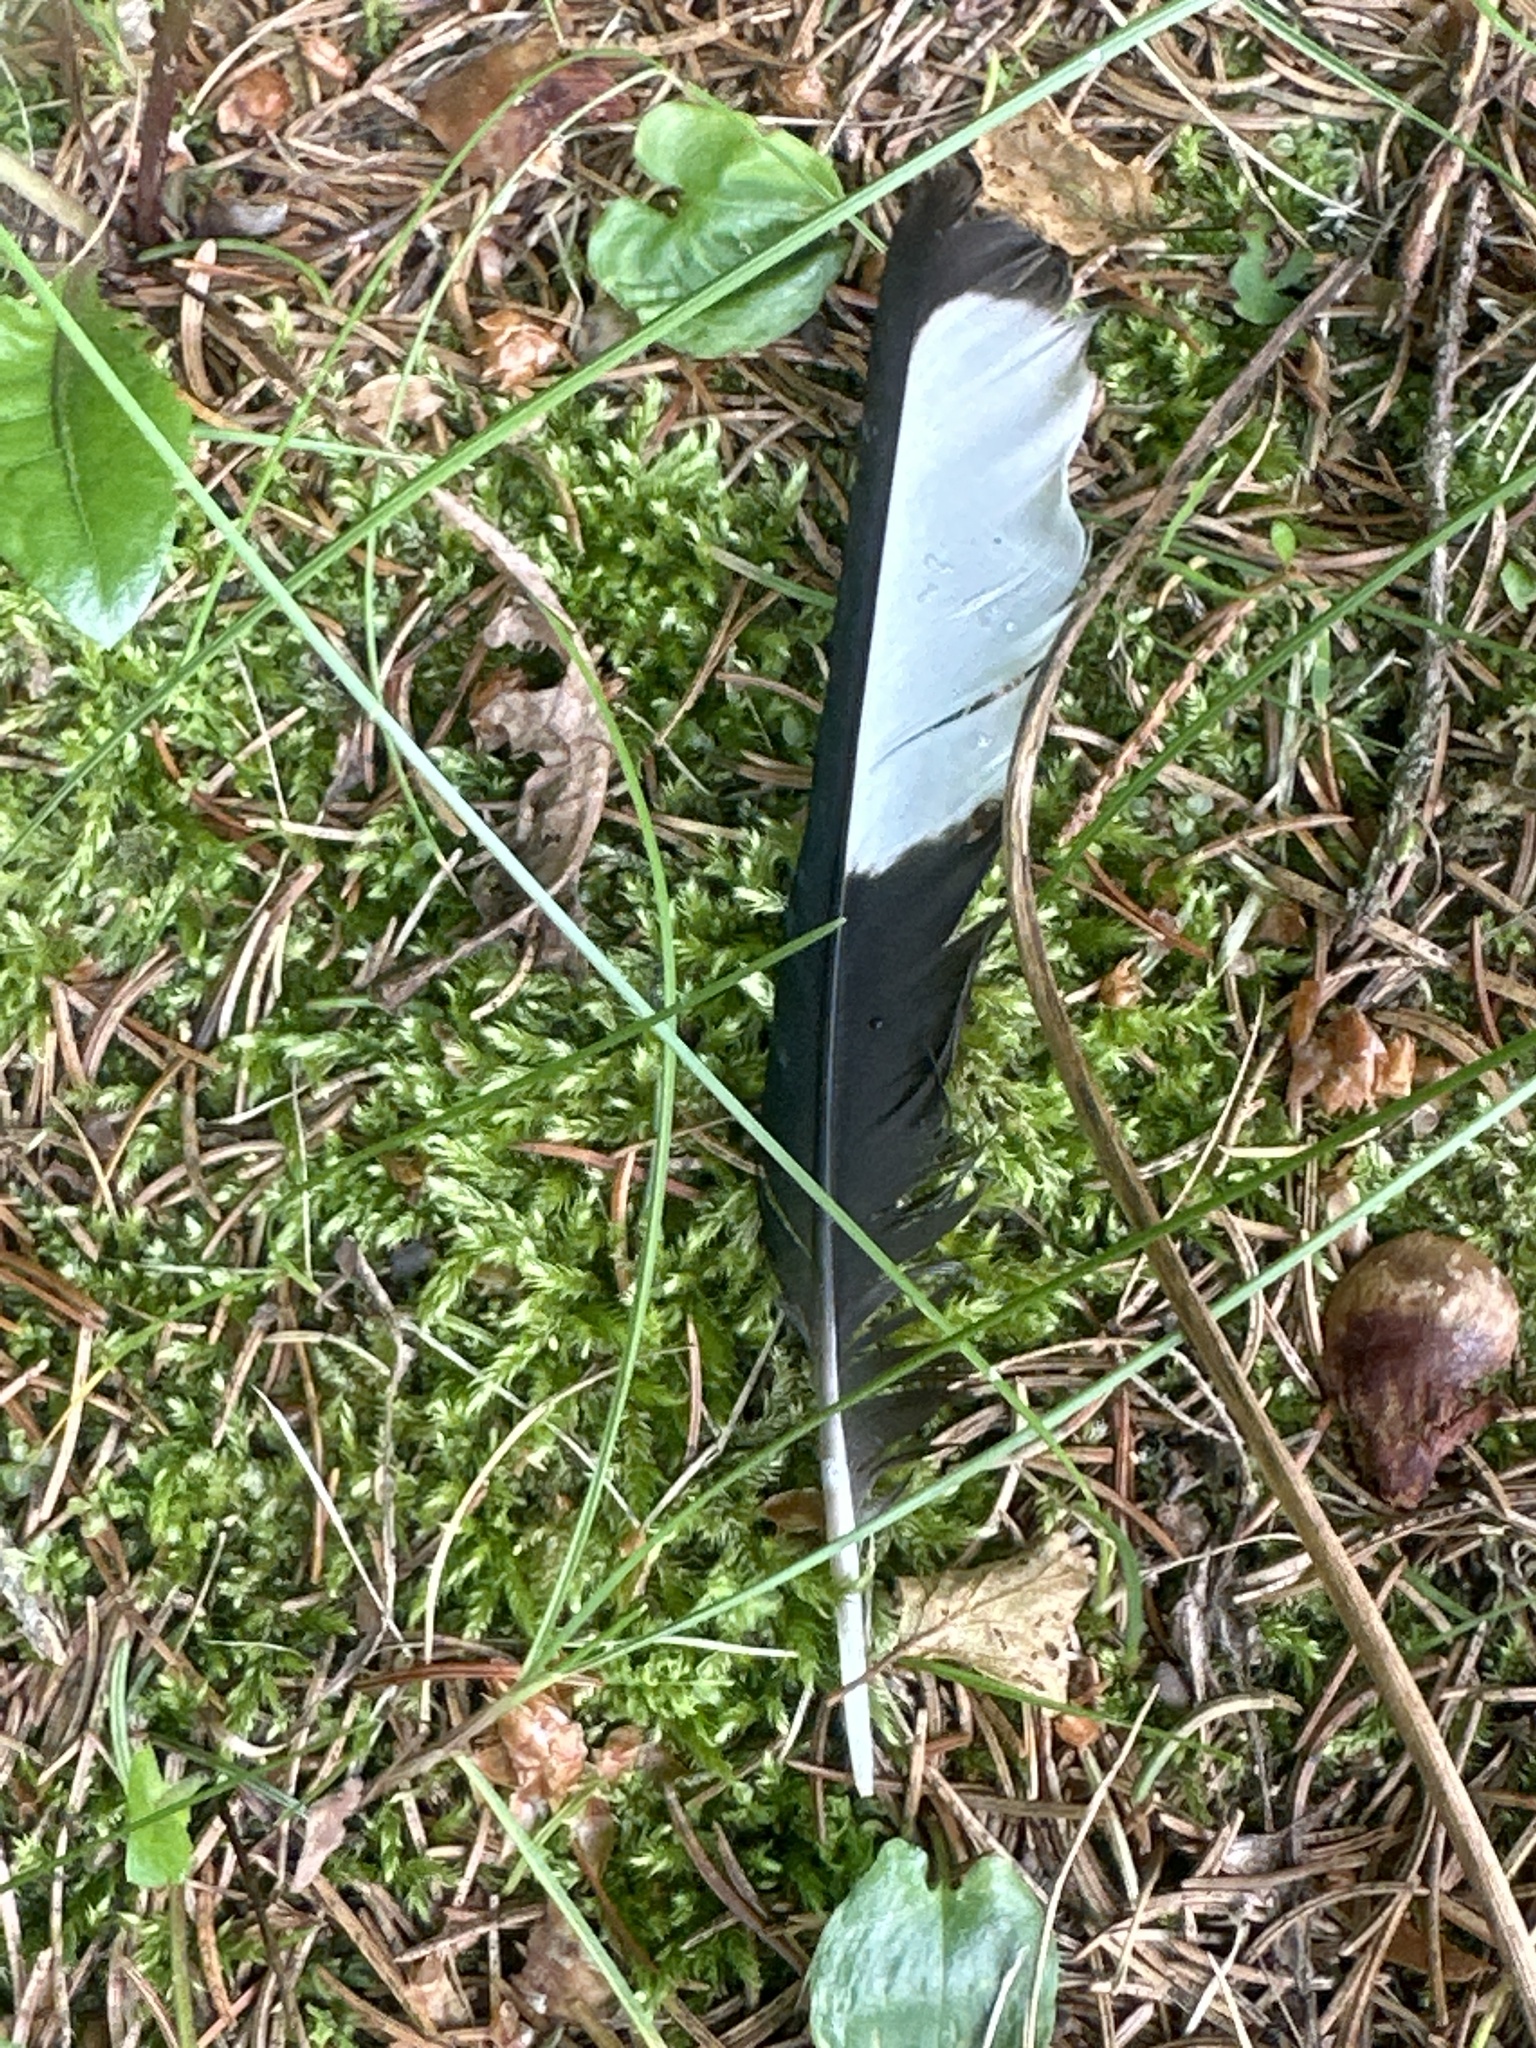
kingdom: Animalia
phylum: Chordata
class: Aves
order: Passeriformes
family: Corvidae
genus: Pica
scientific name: Pica pica
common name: Eurasian magpie
